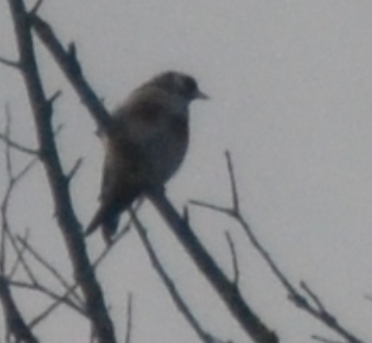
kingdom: Animalia
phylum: Chordata
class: Aves
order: Passeriformes
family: Fringillidae
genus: Carduelis
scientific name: Carduelis carduelis
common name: European goldfinch
